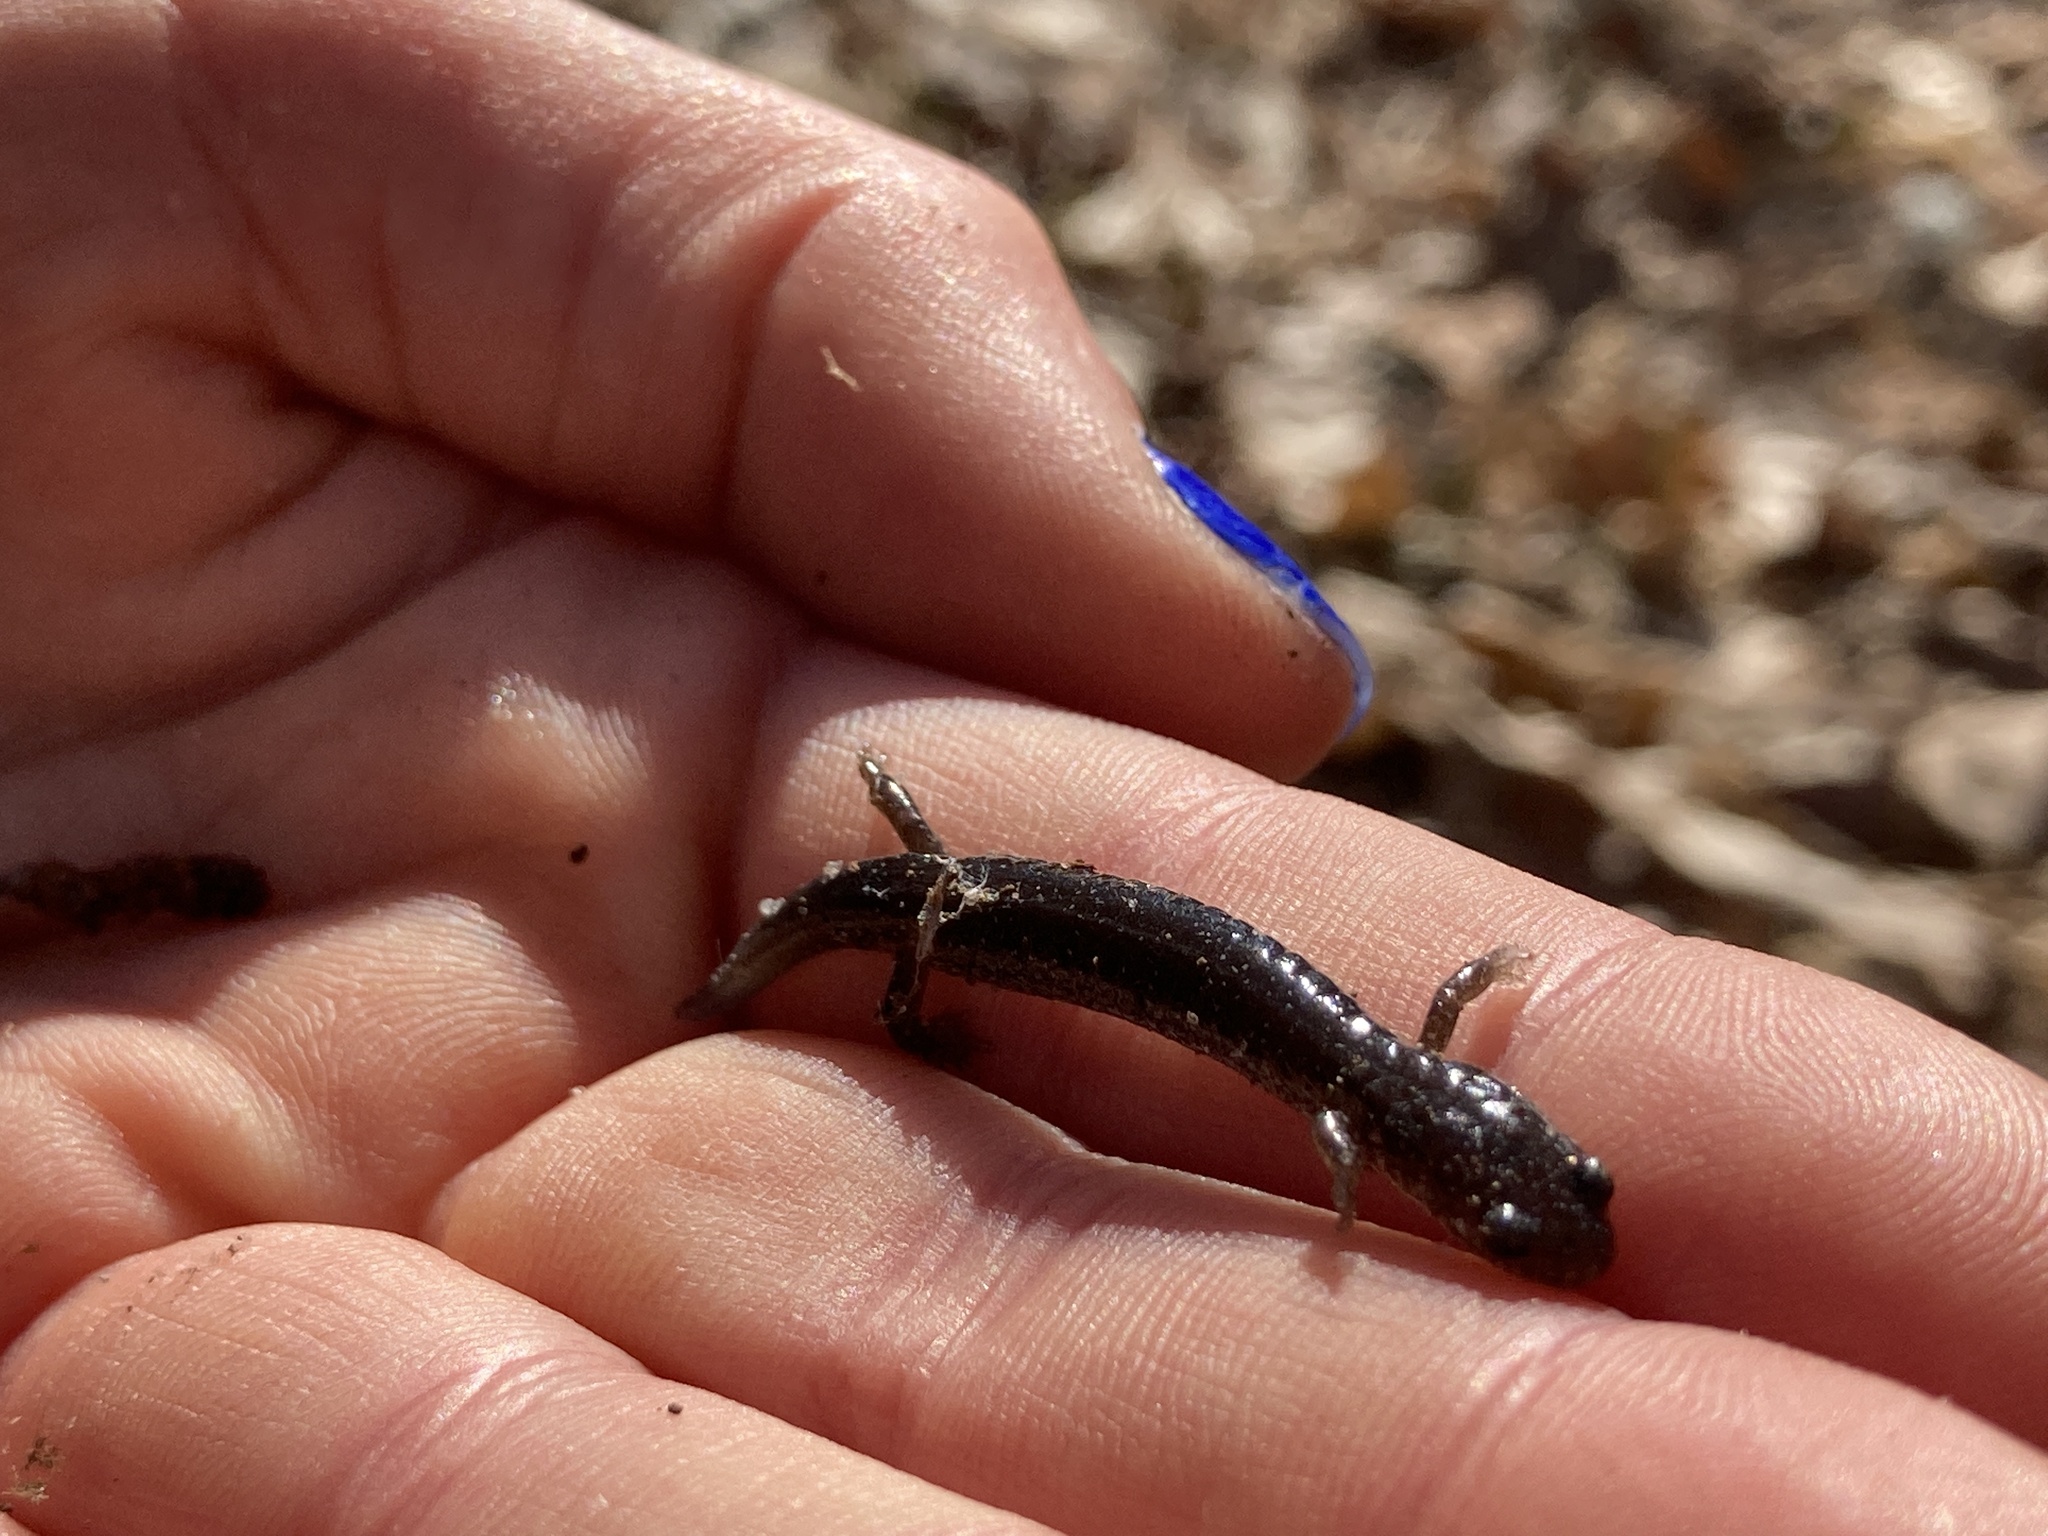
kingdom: Animalia
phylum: Chordata
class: Amphibia
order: Caudata
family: Plethodontidae
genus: Plethodon
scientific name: Plethodon cinereus
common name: Redback salamander
